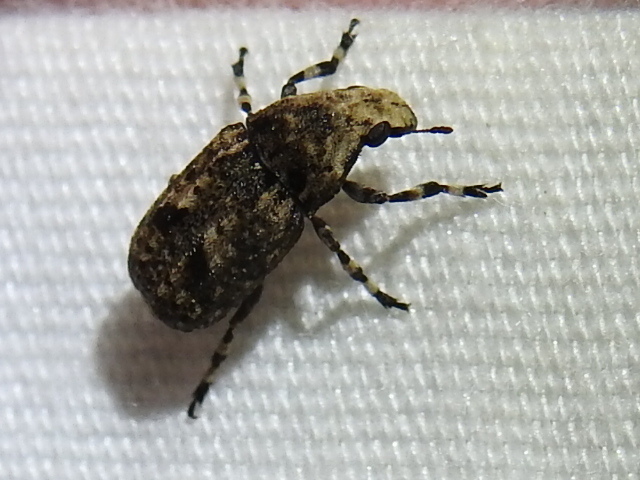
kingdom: Animalia
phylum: Arthropoda
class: Insecta
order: Coleoptera
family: Anthribidae
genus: Euparius
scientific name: Euparius marmoreus
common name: Marbled fungus weevil
